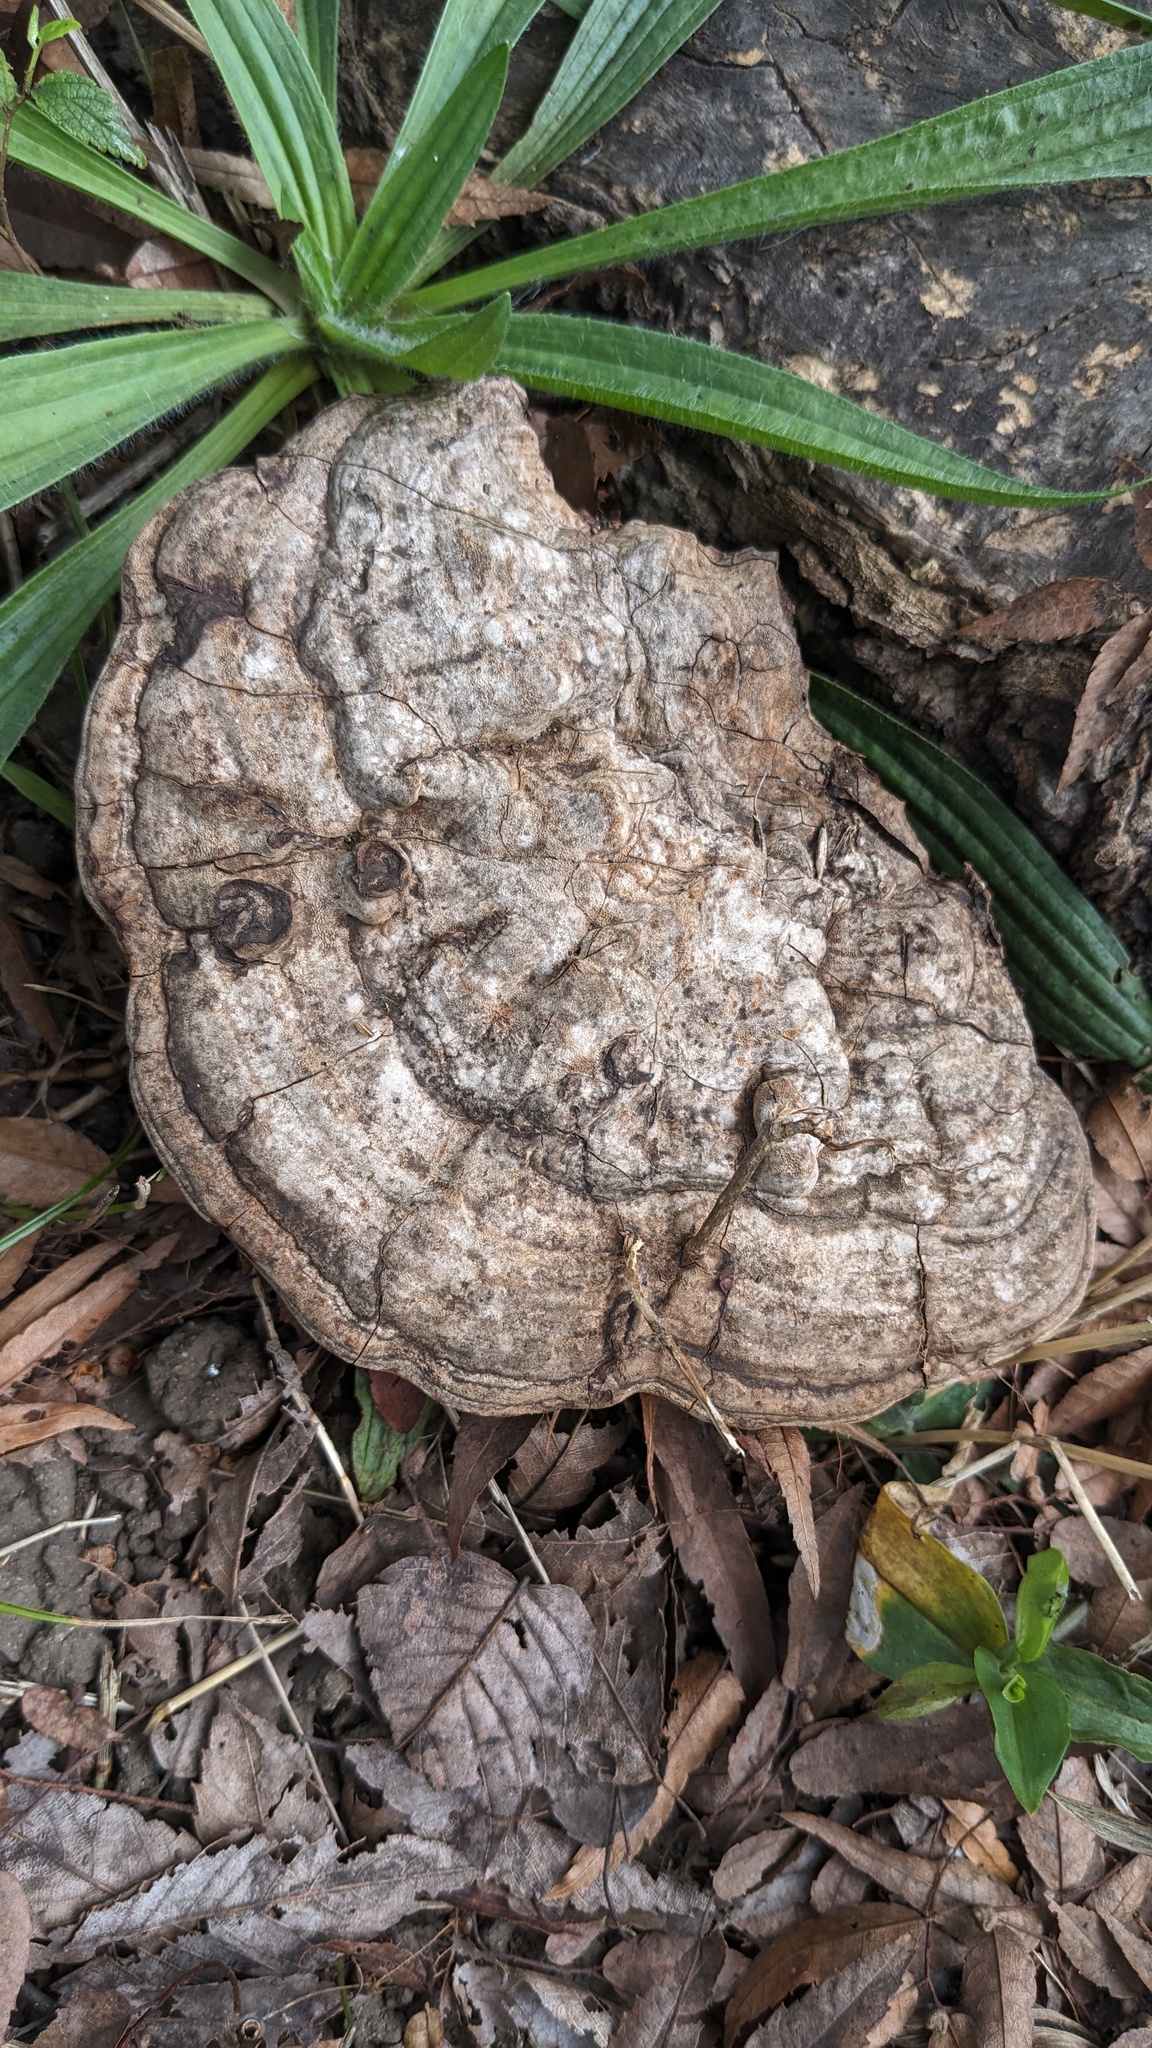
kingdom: Fungi
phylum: Basidiomycota
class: Agaricomycetes
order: Polyporales
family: Polyporaceae
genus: Ganoderma
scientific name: Ganoderma applanatum
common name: Artist's bracket
